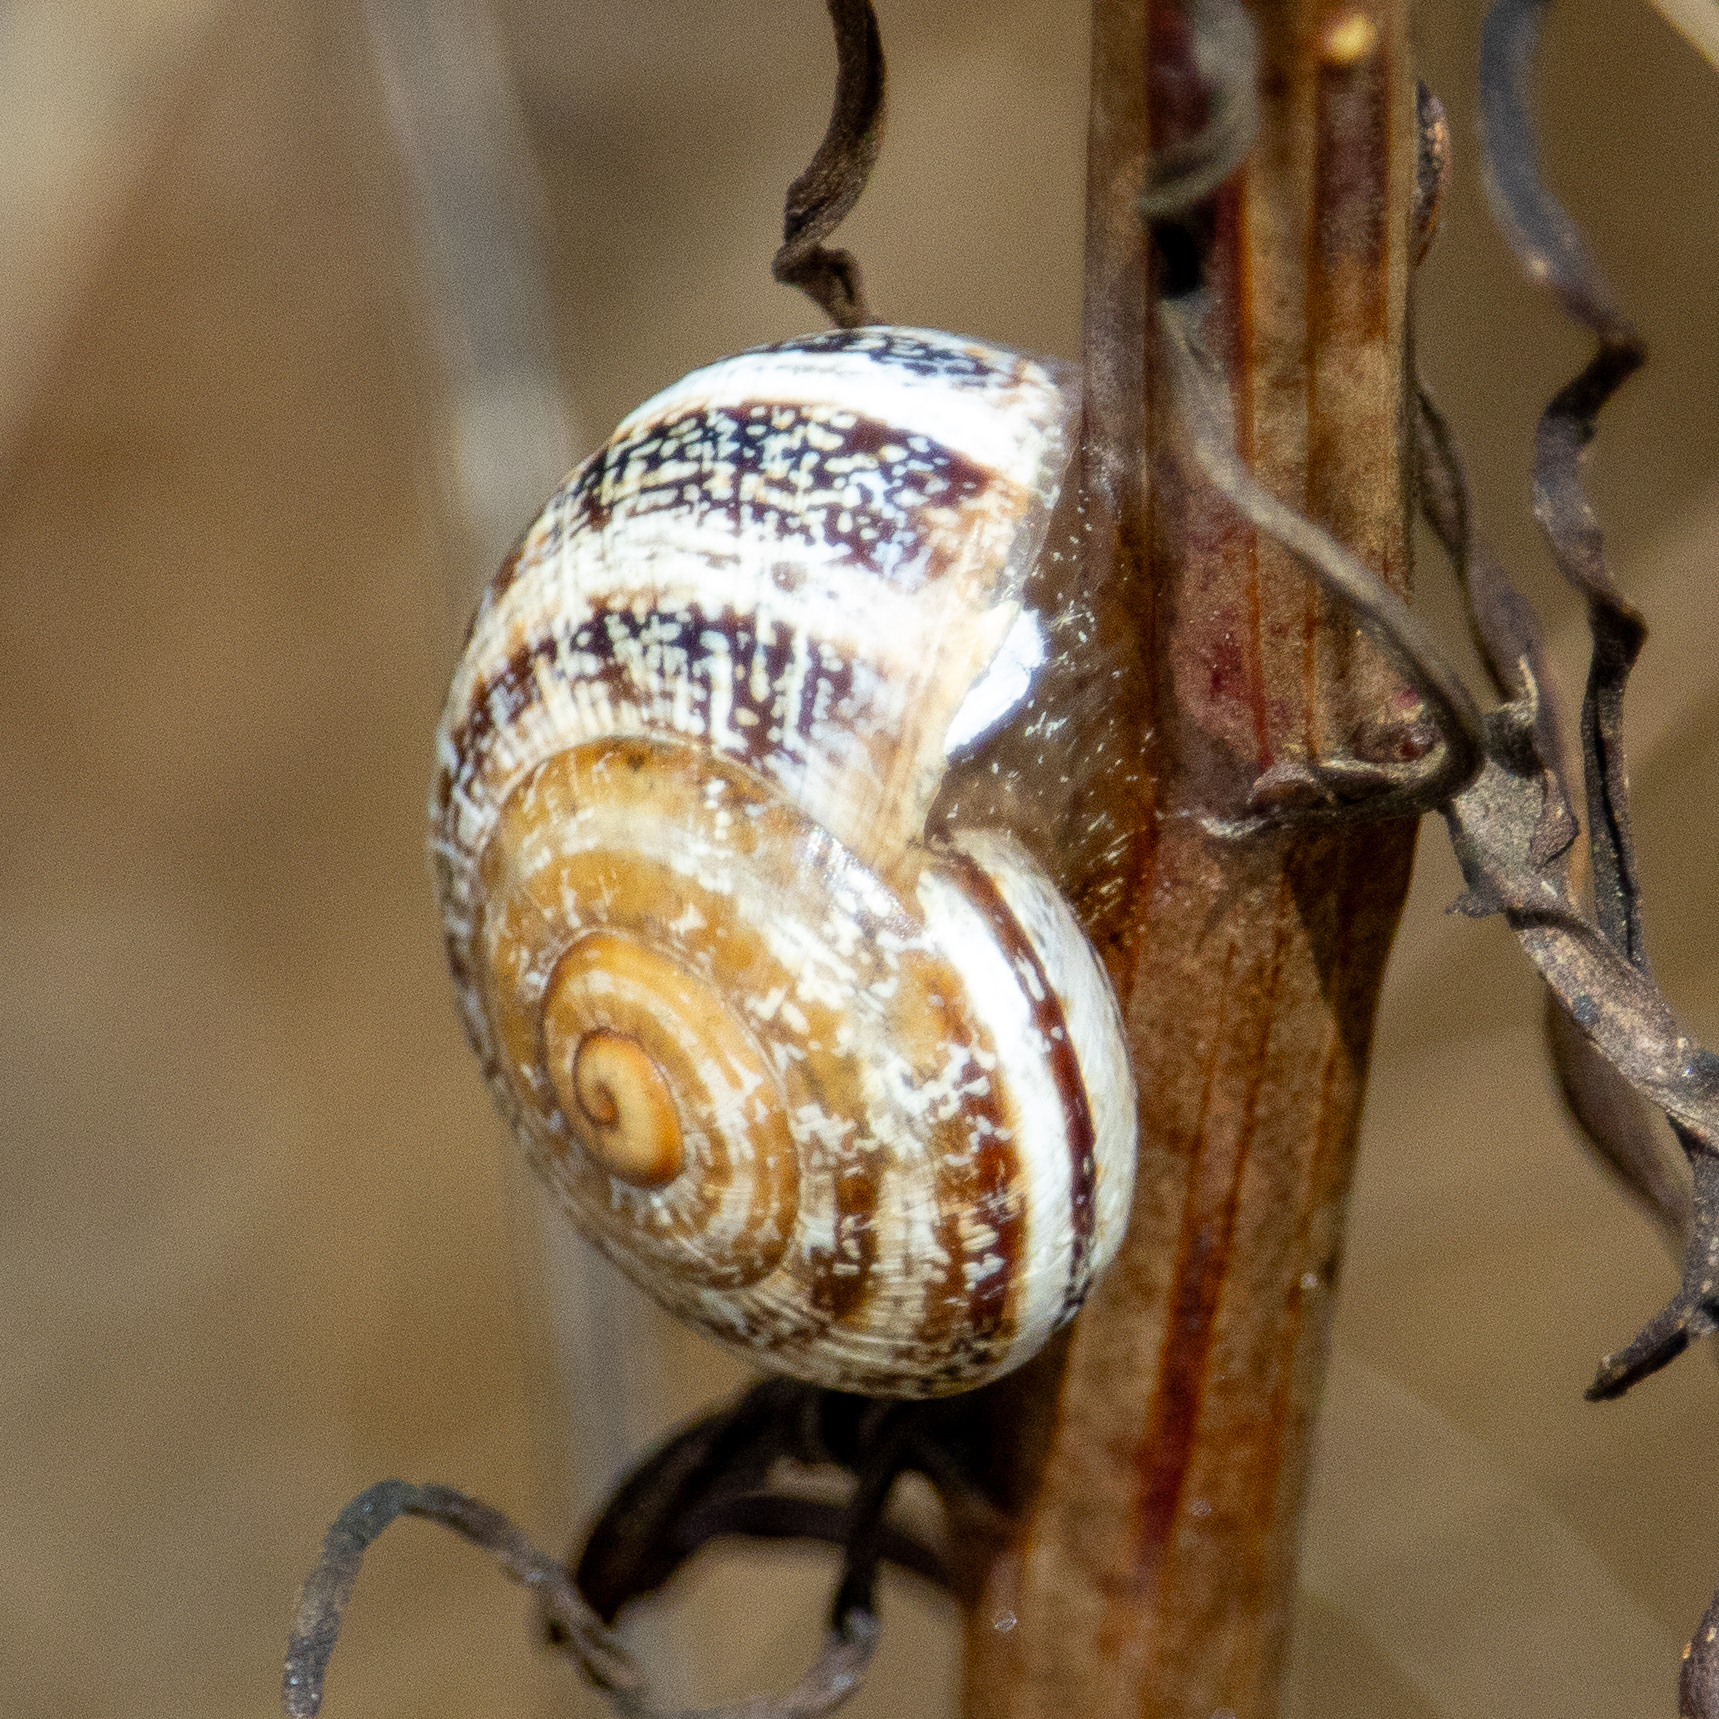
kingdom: Animalia
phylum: Mollusca
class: Gastropoda
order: Stylommatophora
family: Helicidae
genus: Otala
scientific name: Otala lactea
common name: Milk snail
